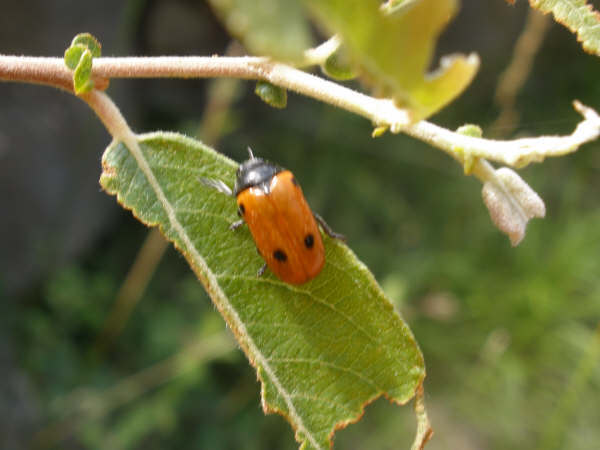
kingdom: Animalia
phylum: Arthropoda
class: Insecta
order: Coleoptera
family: Chrysomelidae
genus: Clytra
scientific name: Clytra quadripunctata
